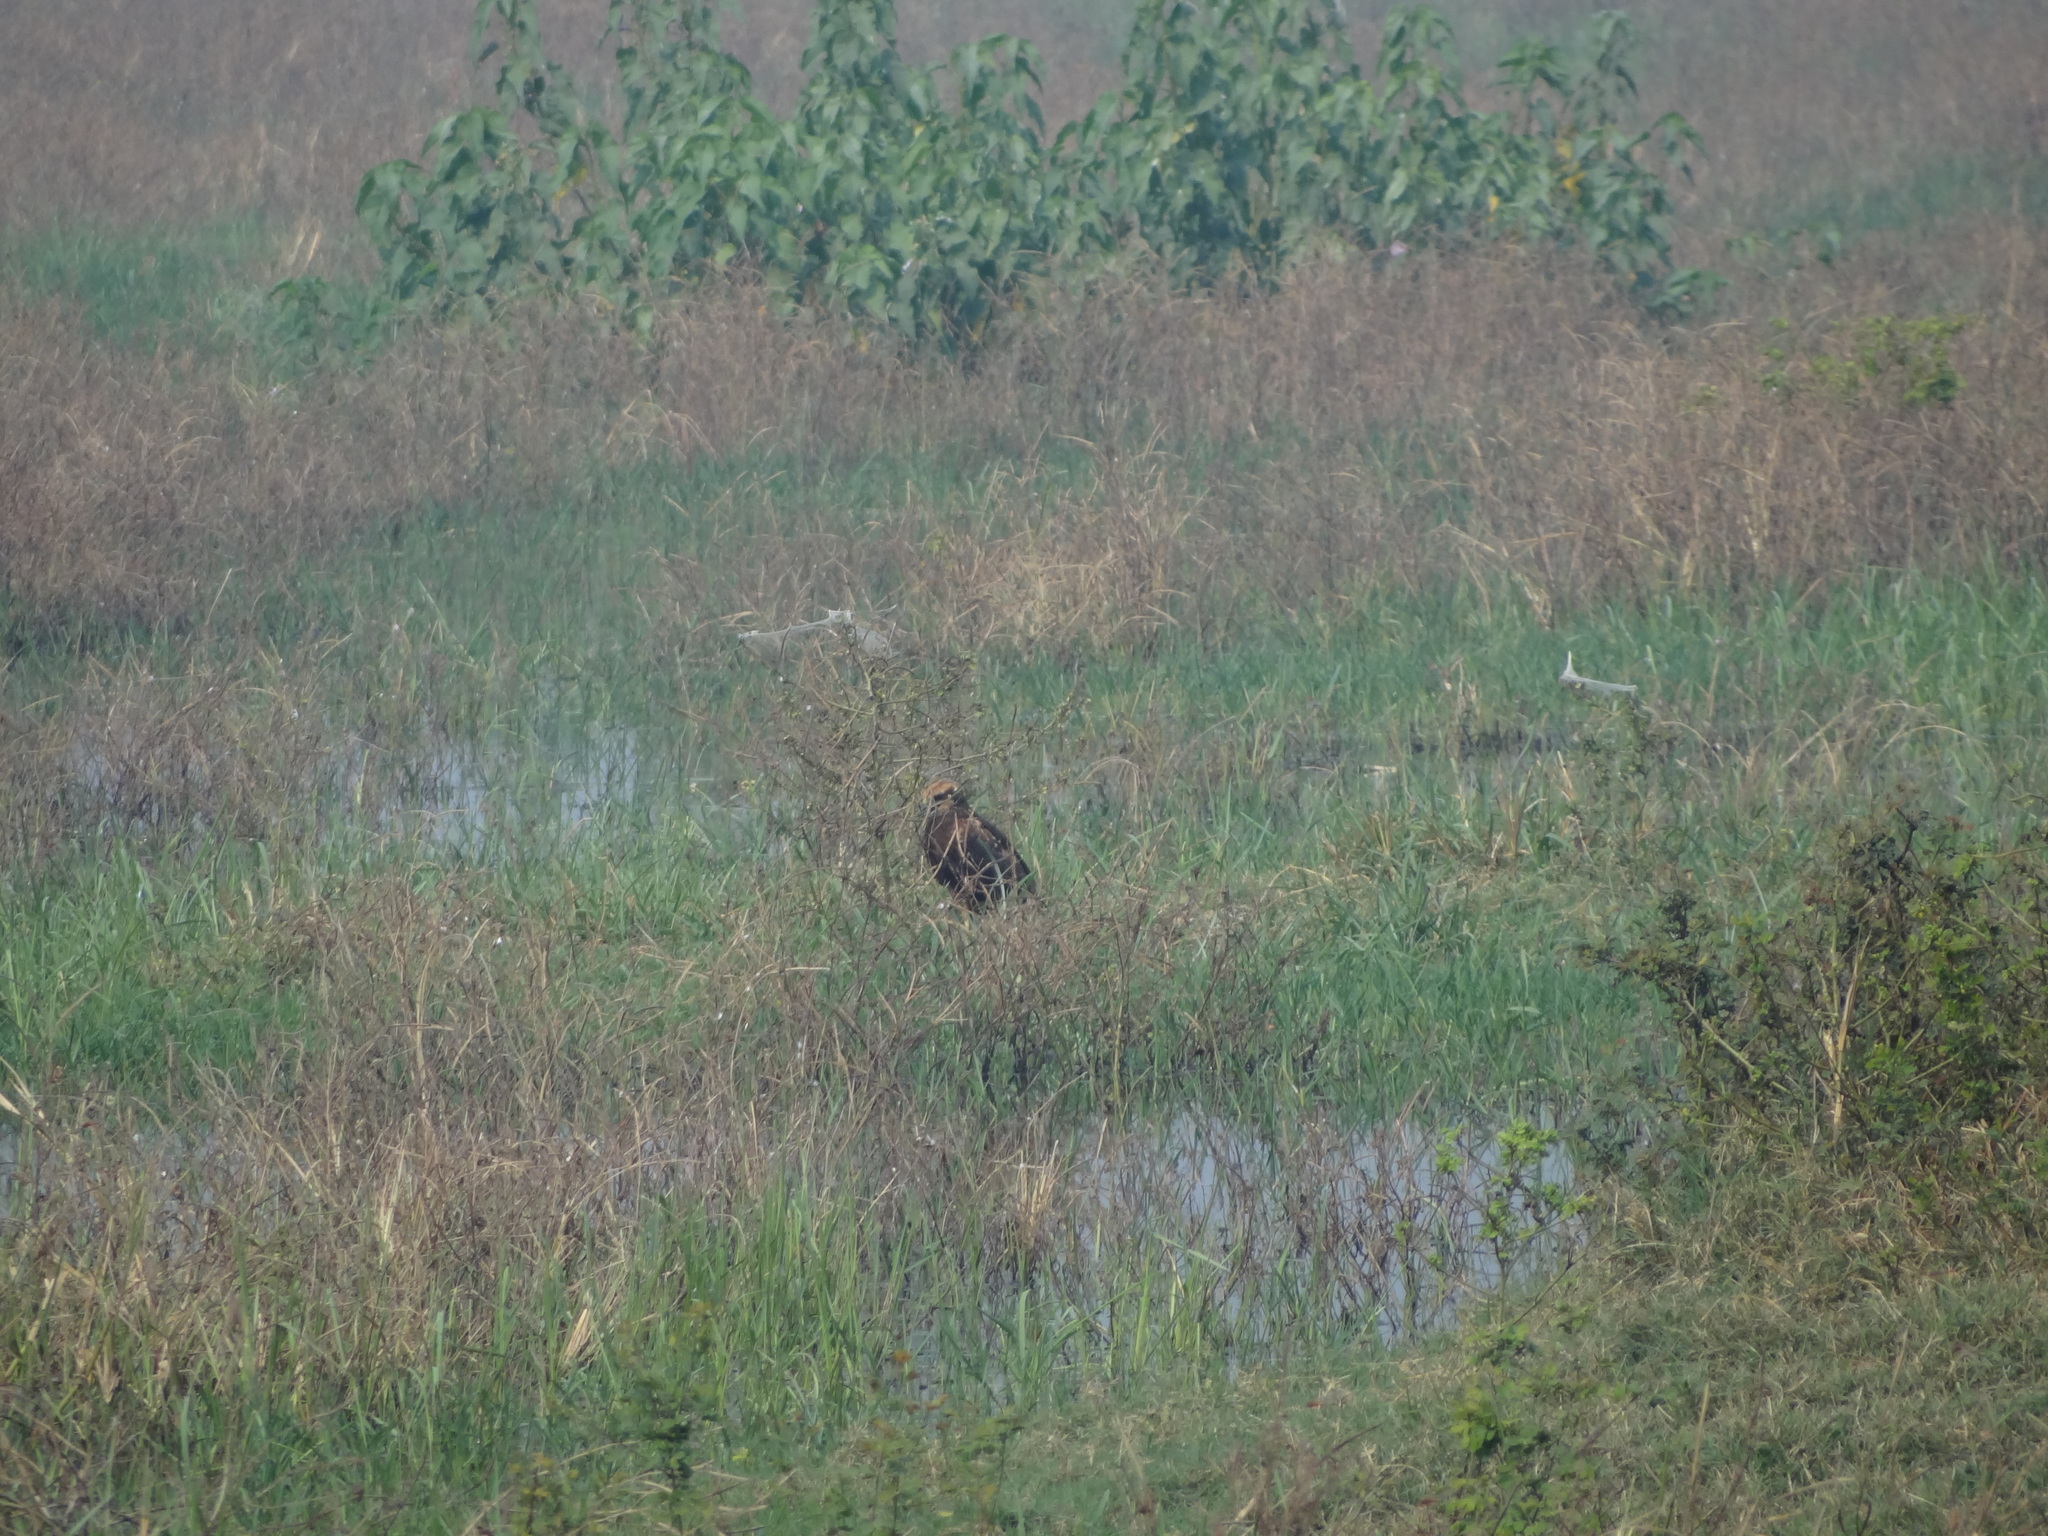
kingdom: Animalia
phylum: Chordata
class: Aves
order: Accipitriformes
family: Accipitridae
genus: Circus
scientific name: Circus aeruginosus
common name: Western marsh harrier
